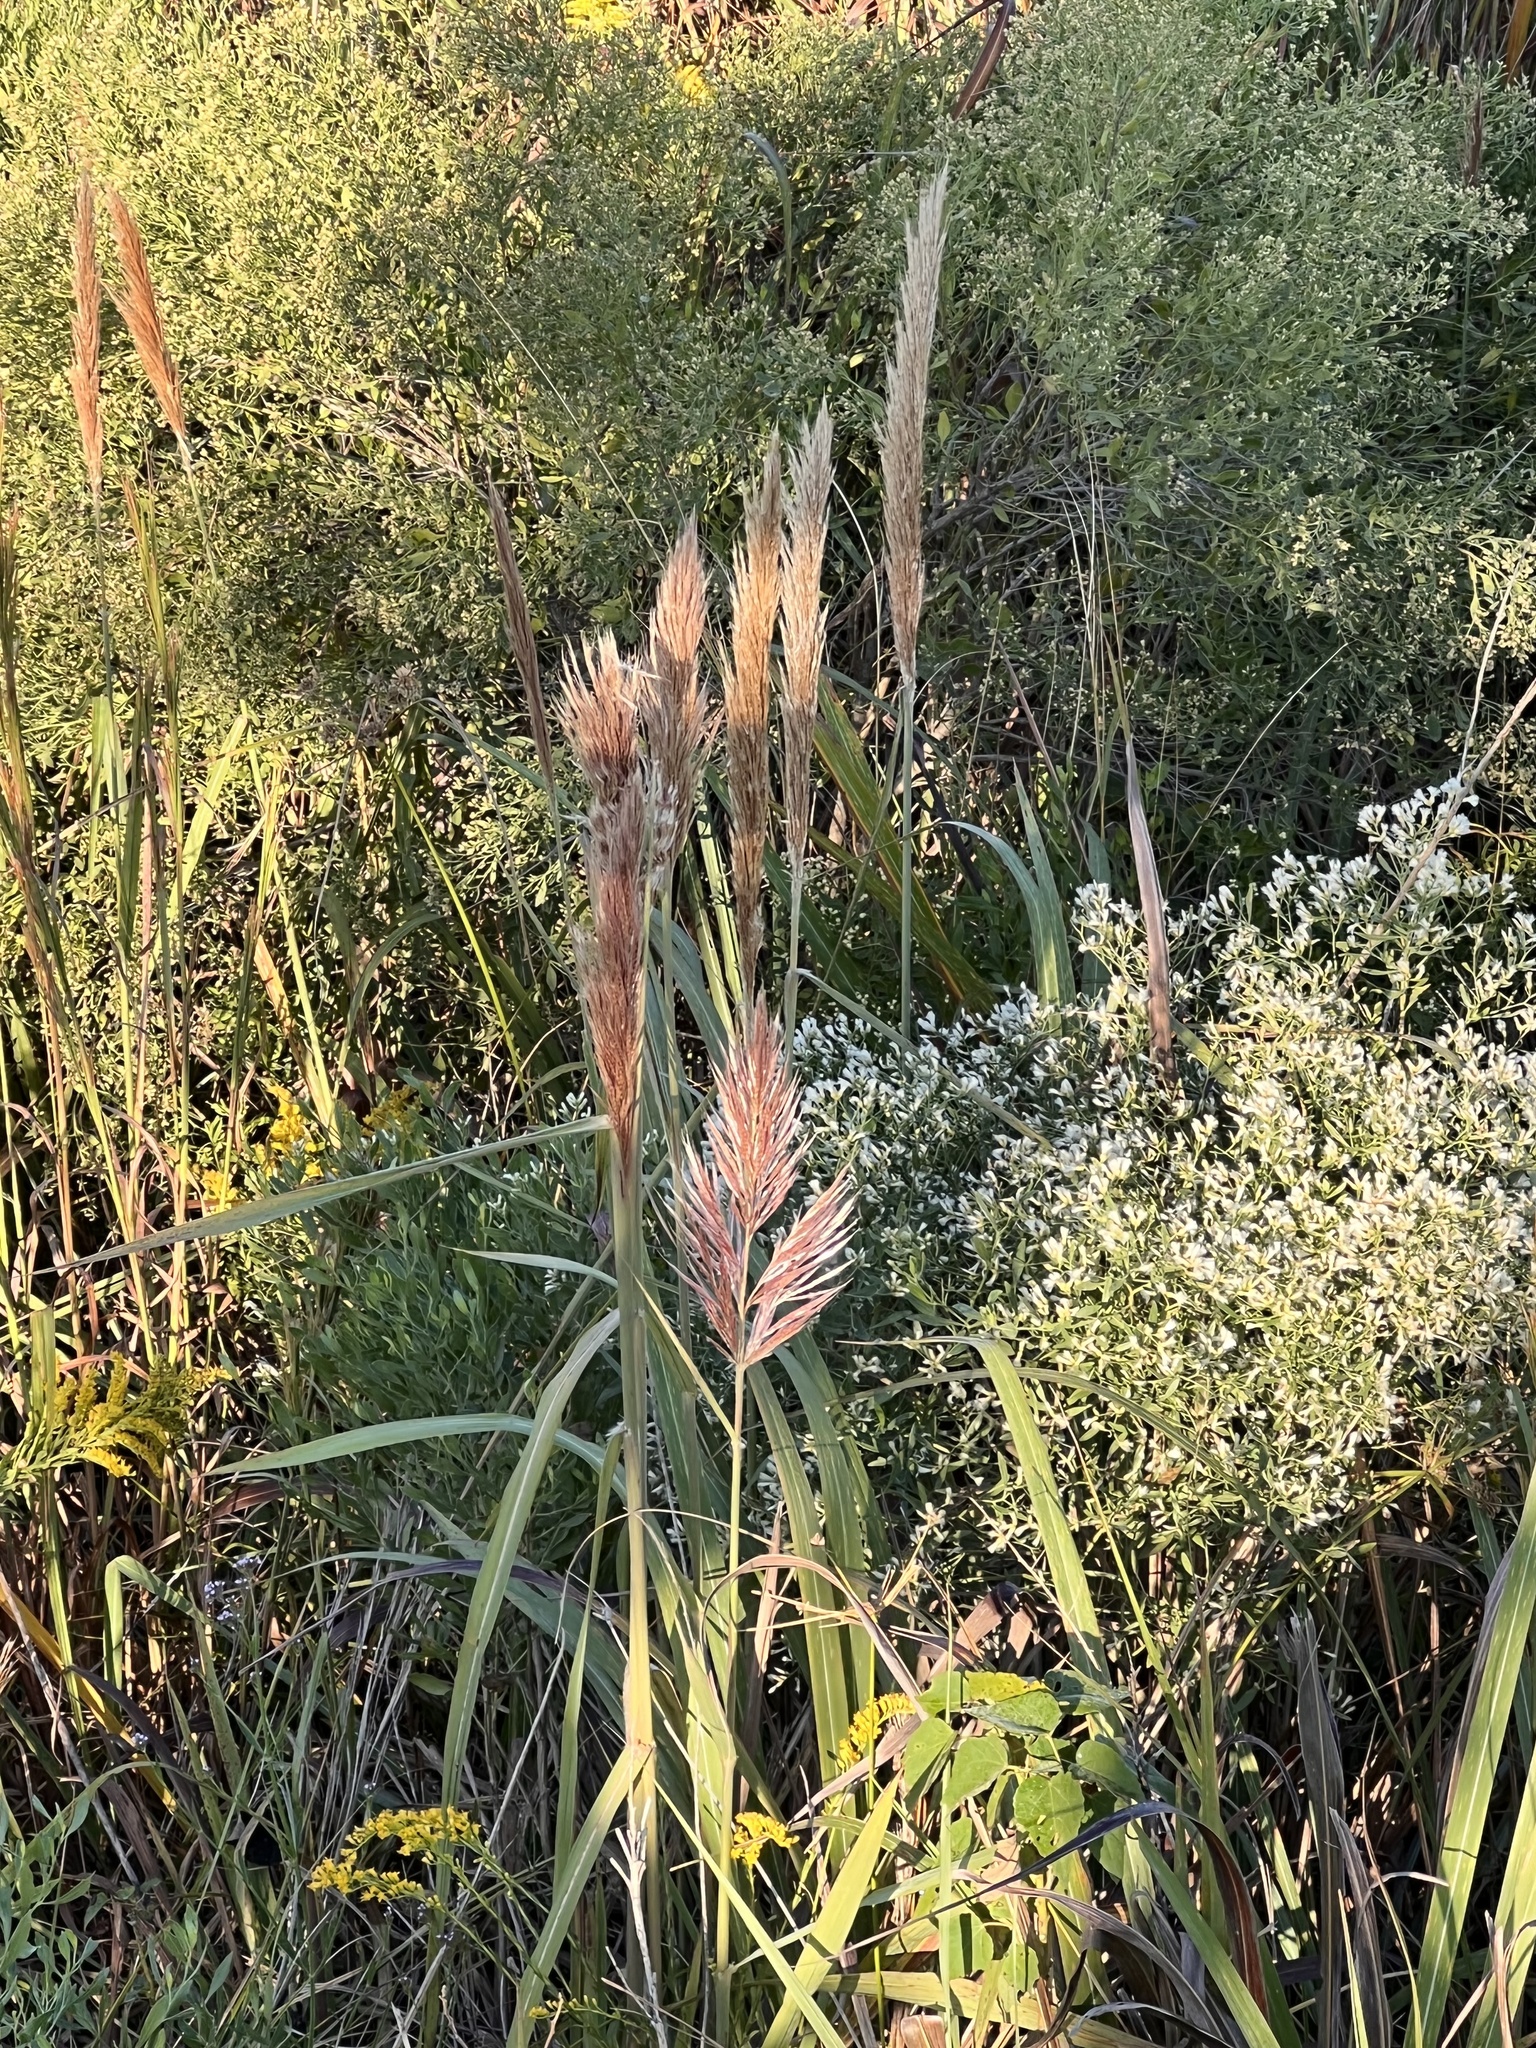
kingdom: Plantae
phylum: Tracheophyta
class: Liliopsida
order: Poales
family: Poaceae
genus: Erianthus
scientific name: Erianthus giganteus
